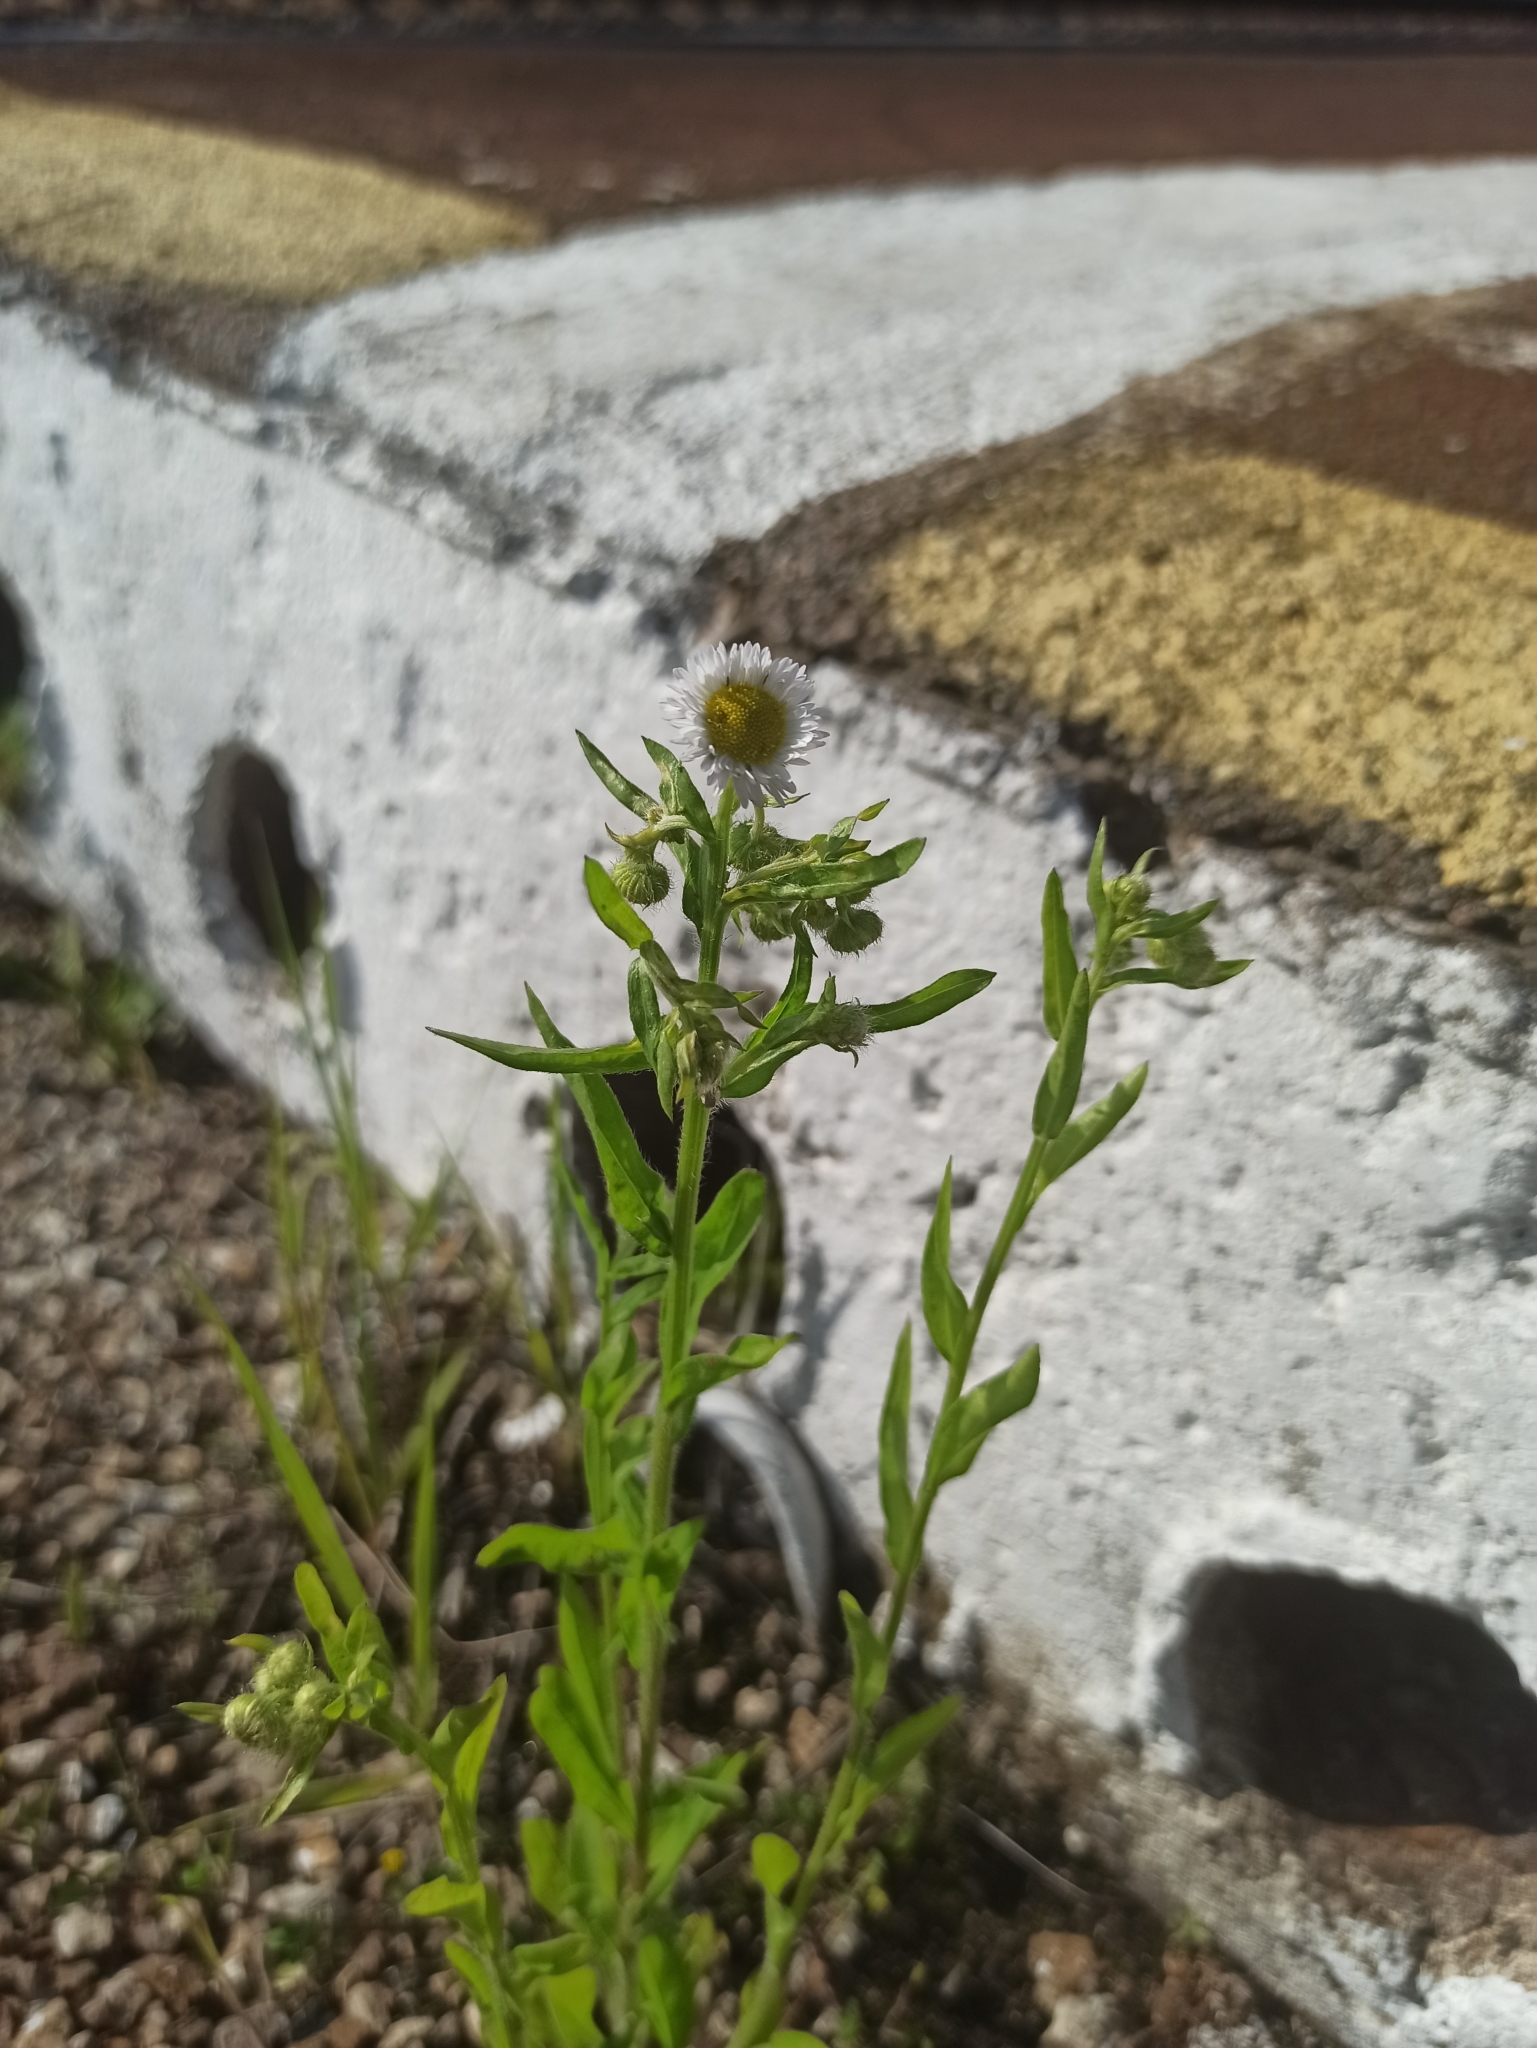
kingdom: Plantae
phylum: Tracheophyta
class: Magnoliopsida
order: Asterales
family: Asteraceae
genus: Erigeron
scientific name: Erigeron annuus
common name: Tall fleabane
